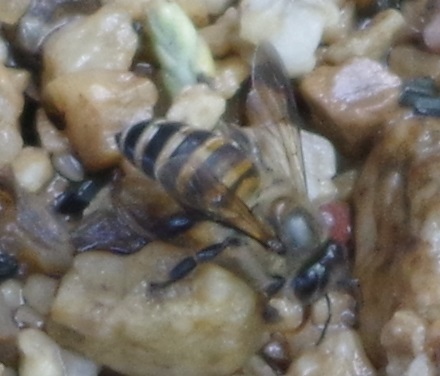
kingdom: Animalia
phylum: Arthropoda
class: Insecta
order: Hymenoptera
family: Apidae
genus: Apis
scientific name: Apis cerana
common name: Honey bee
